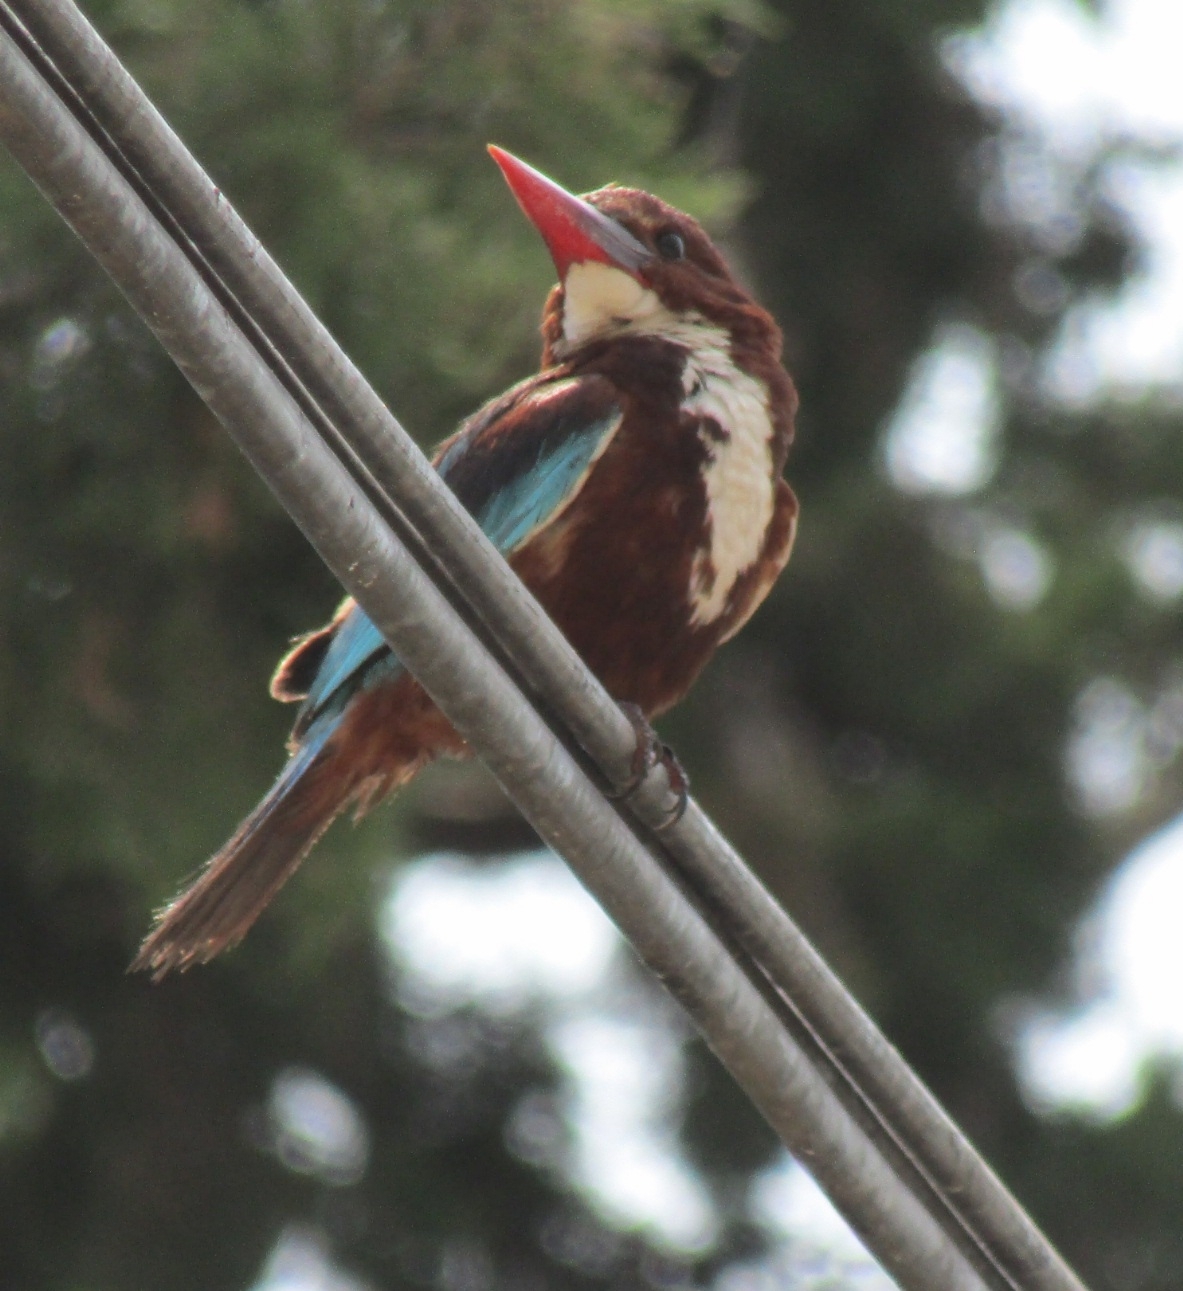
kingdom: Animalia
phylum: Chordata
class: Aves
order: Coraciiformes
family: Alcedinidae
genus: Halcyon
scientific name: Halcyon smyrnensis
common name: White-throated kingfisher
